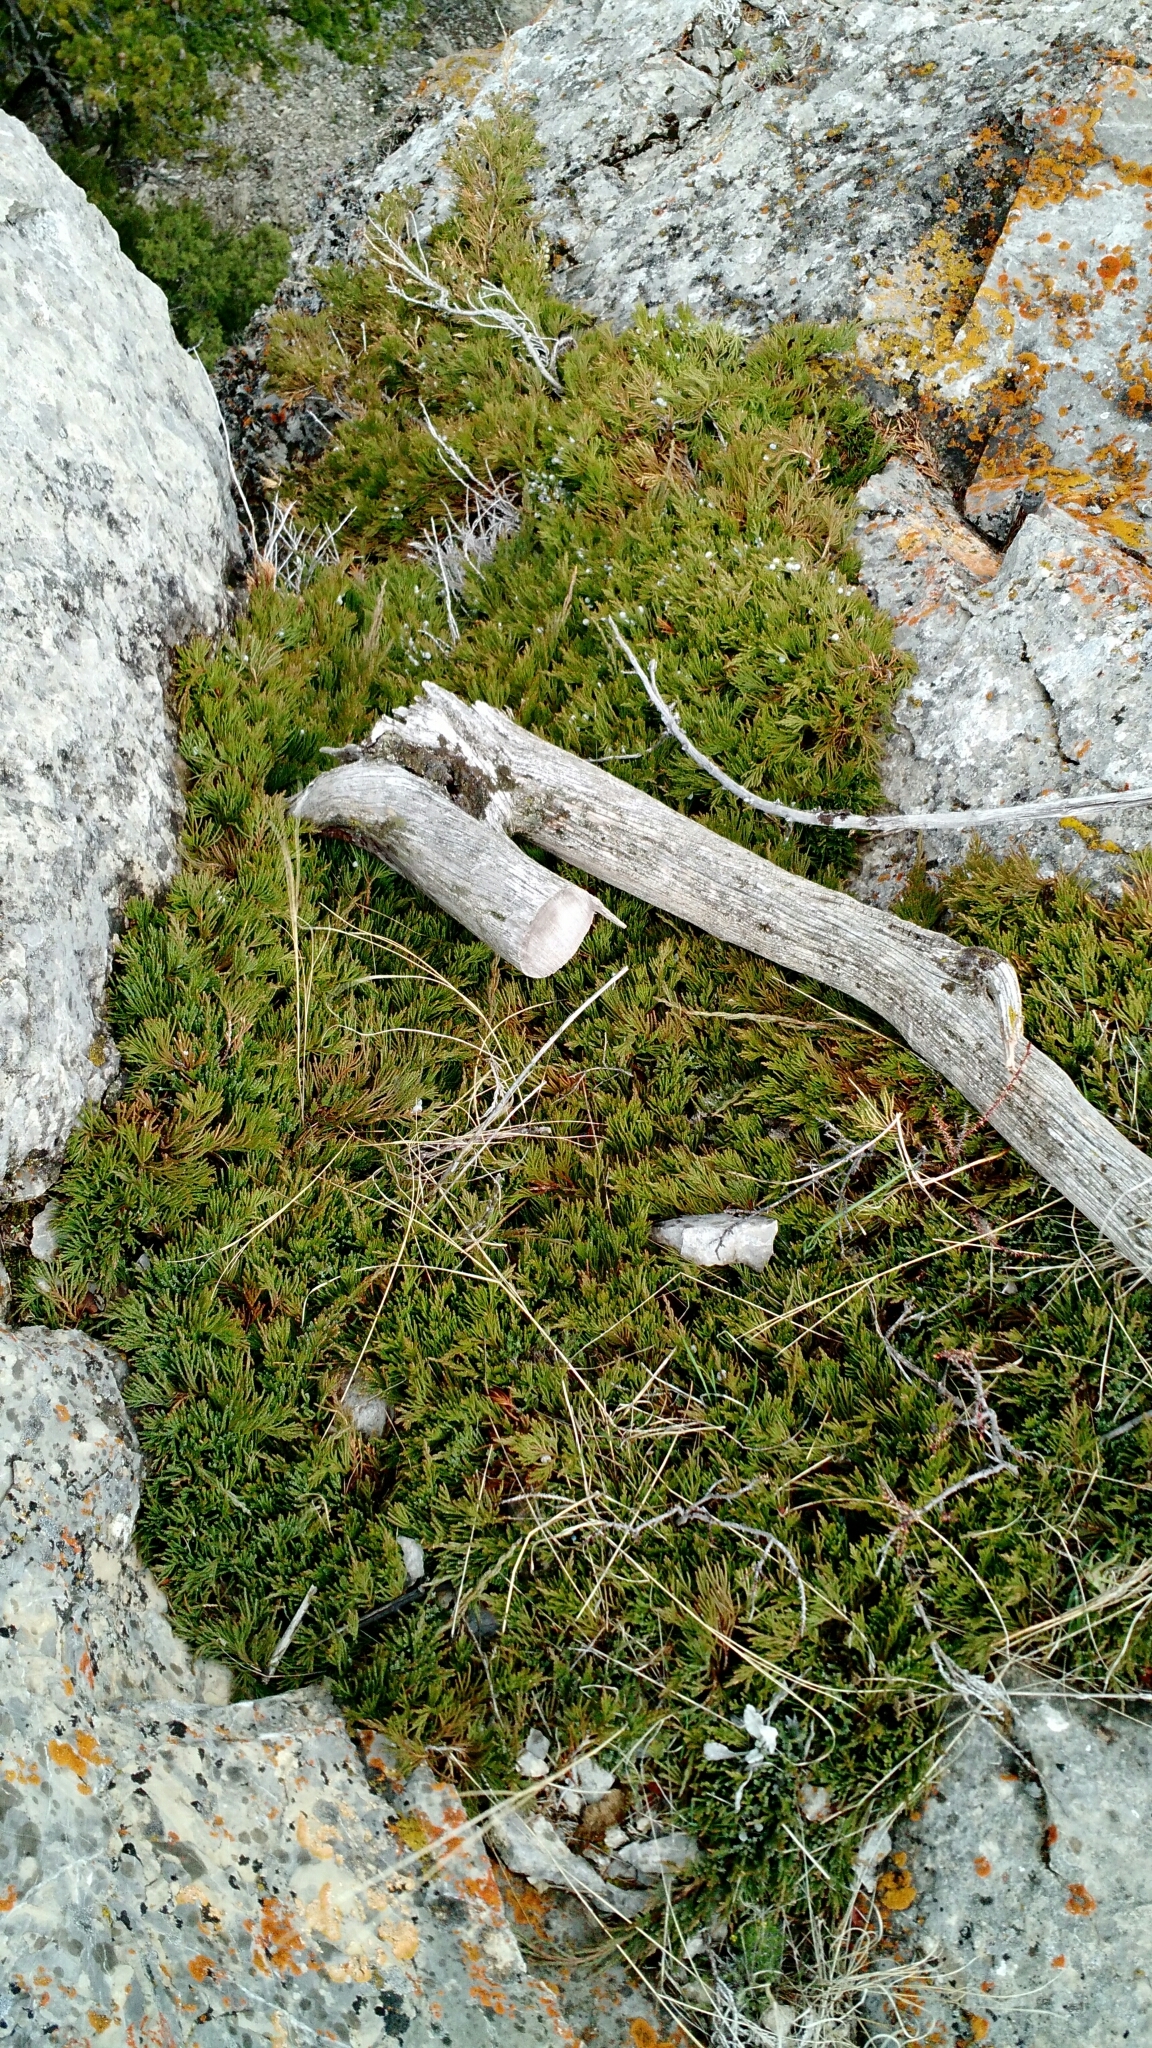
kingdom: Plantae
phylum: Tracheophyta
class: Pinopsida
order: Pinales
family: Cupressaceae
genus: Juniperus
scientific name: Juniperus horizontalis
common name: Creeping juniper
